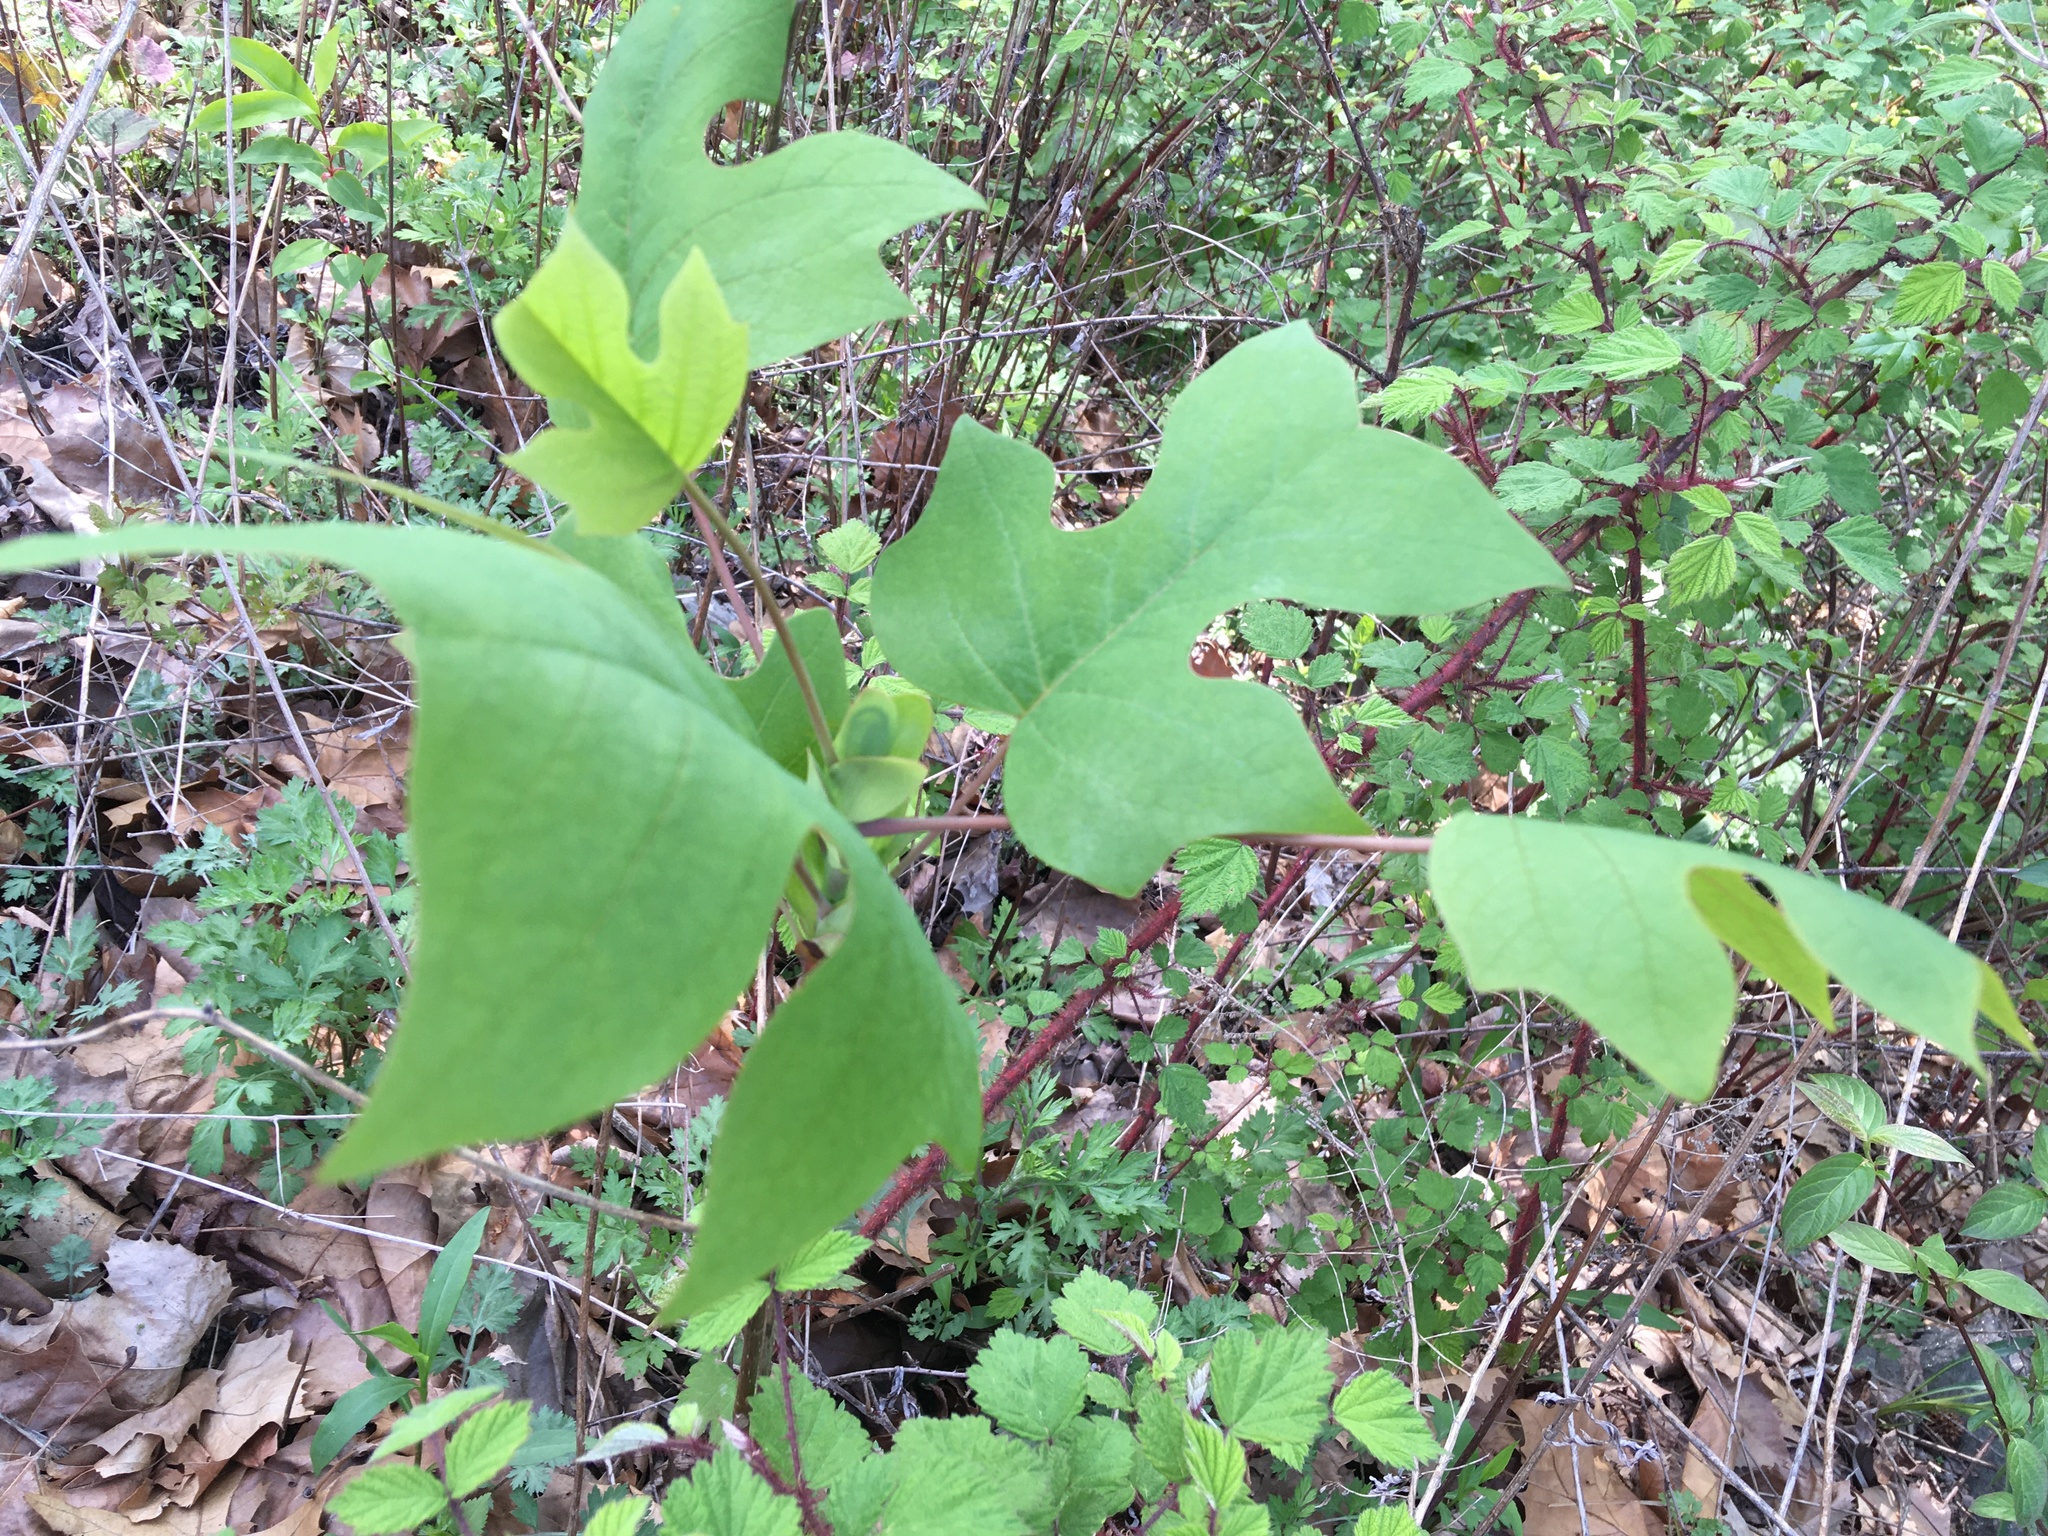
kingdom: Plantae
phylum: Tracheophyta
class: Magnoliopsida
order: Magnoliales
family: Magnoliaceae
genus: Liriodendron
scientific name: Liriodendron tulipifera
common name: Tulip tree
